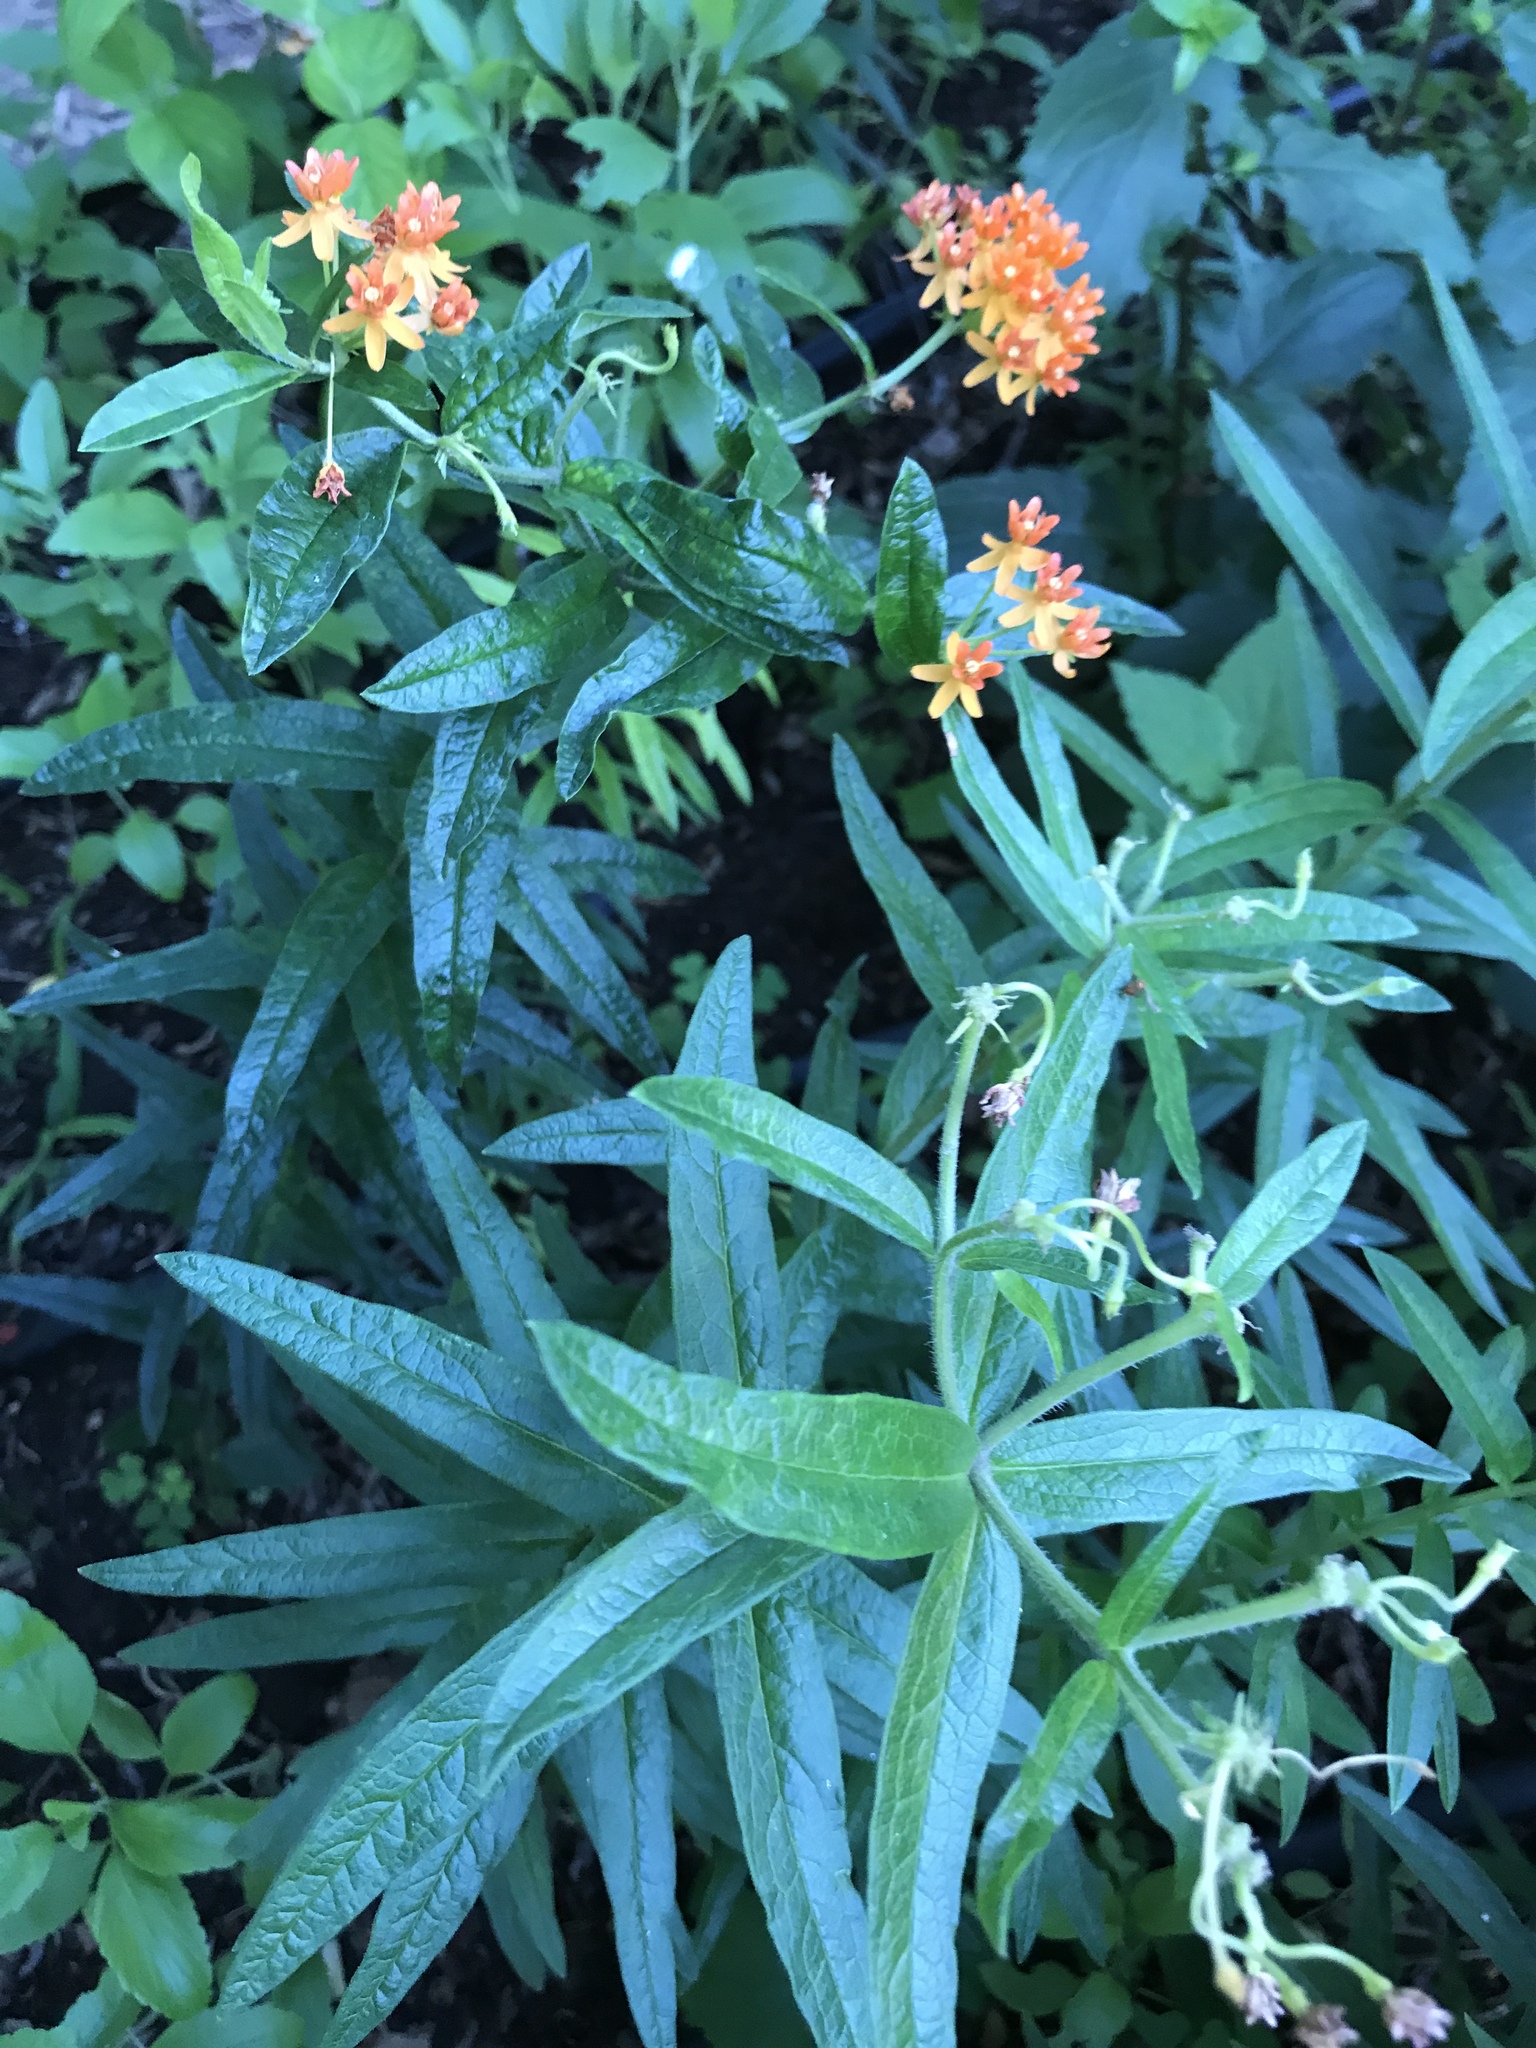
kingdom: Plantae
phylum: Tracheophyta
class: Magnoliopsida
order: Gentianales
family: Apocynaceae
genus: Asclepias
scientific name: Asclepias tuberosa
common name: Butterfly milkweed
